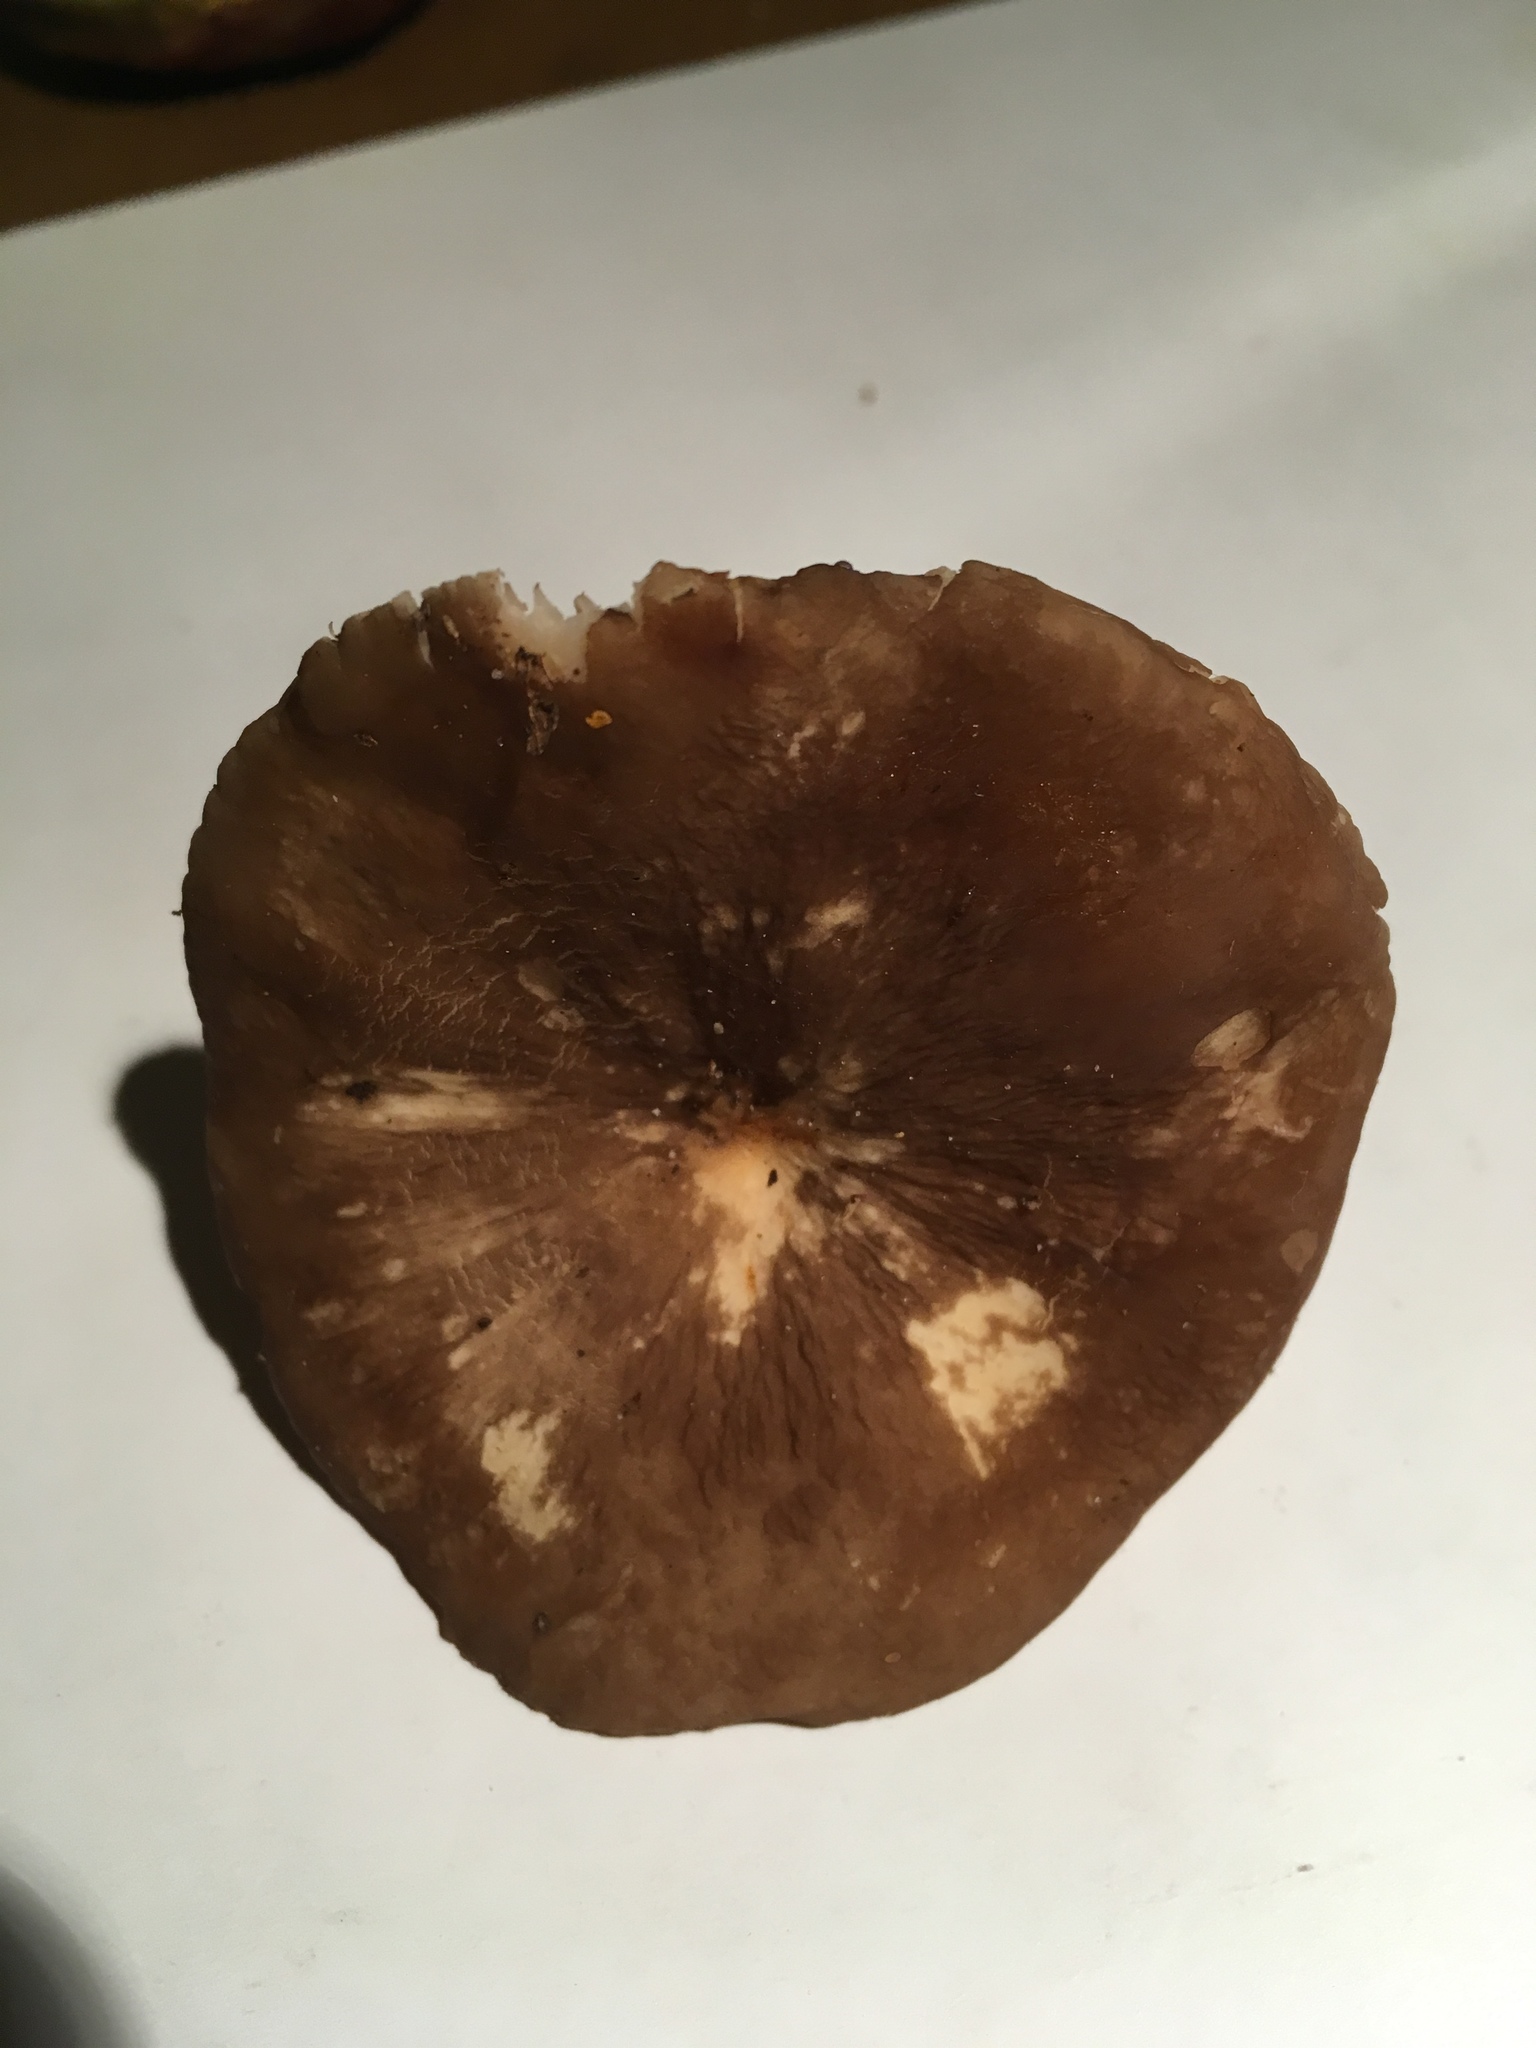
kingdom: Fungi
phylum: Basidiomycota
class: Agaricomycetes
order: Russulales
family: Russulaceae
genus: Lactarius
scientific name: Lactarius gerardii
